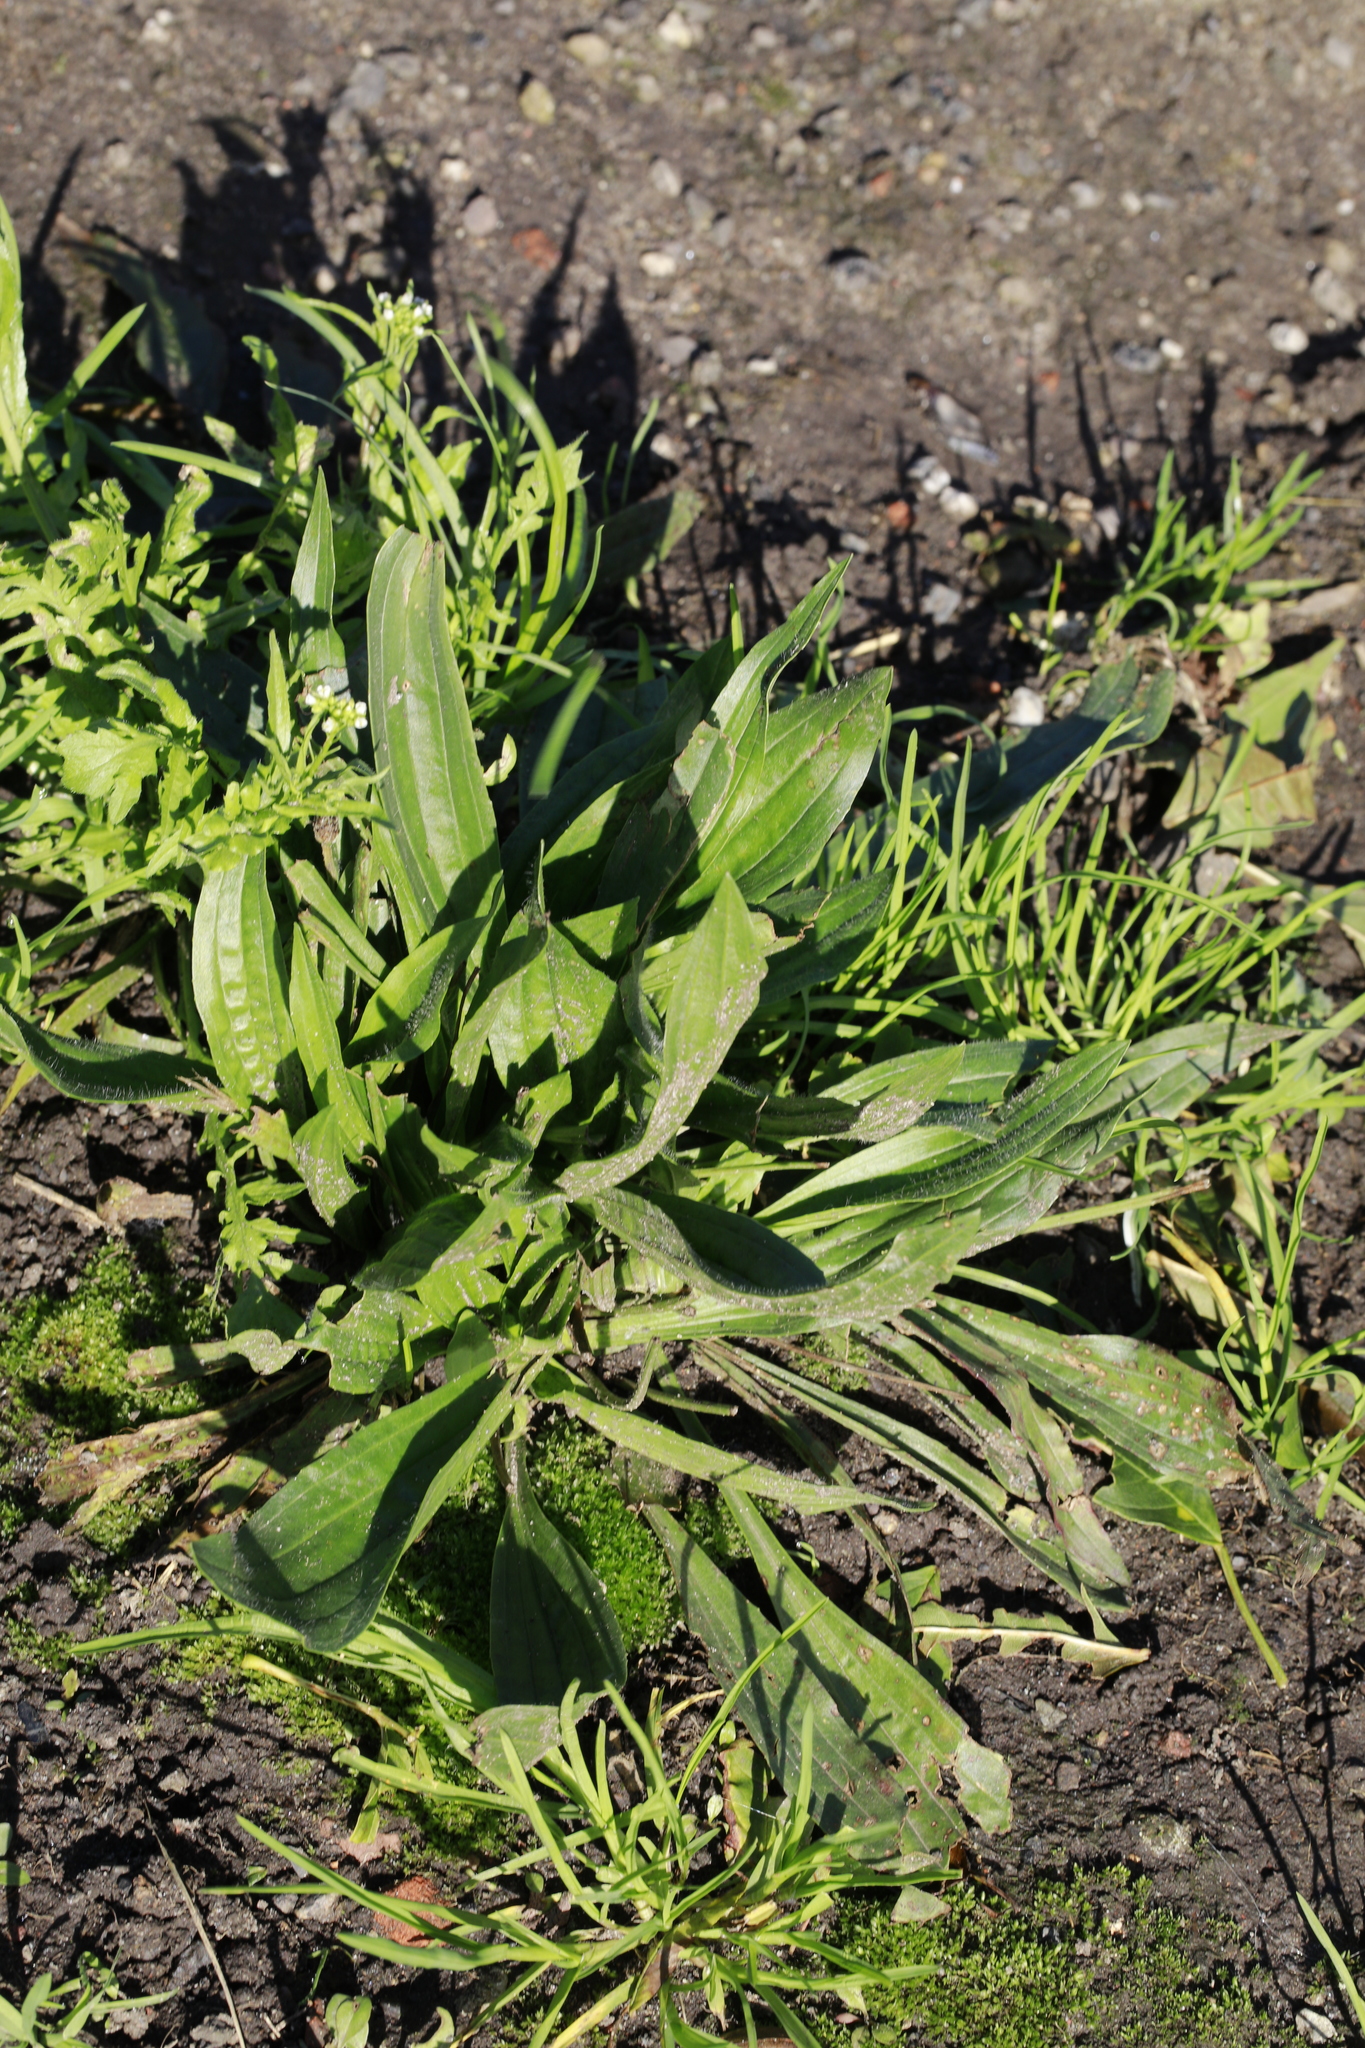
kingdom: Plantae
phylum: Tracheophyta
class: Magnoliopsida
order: Lamiales
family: Plantaginaceae
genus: Plantago
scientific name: Plantago lanceolata
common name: Ribwort plantain
